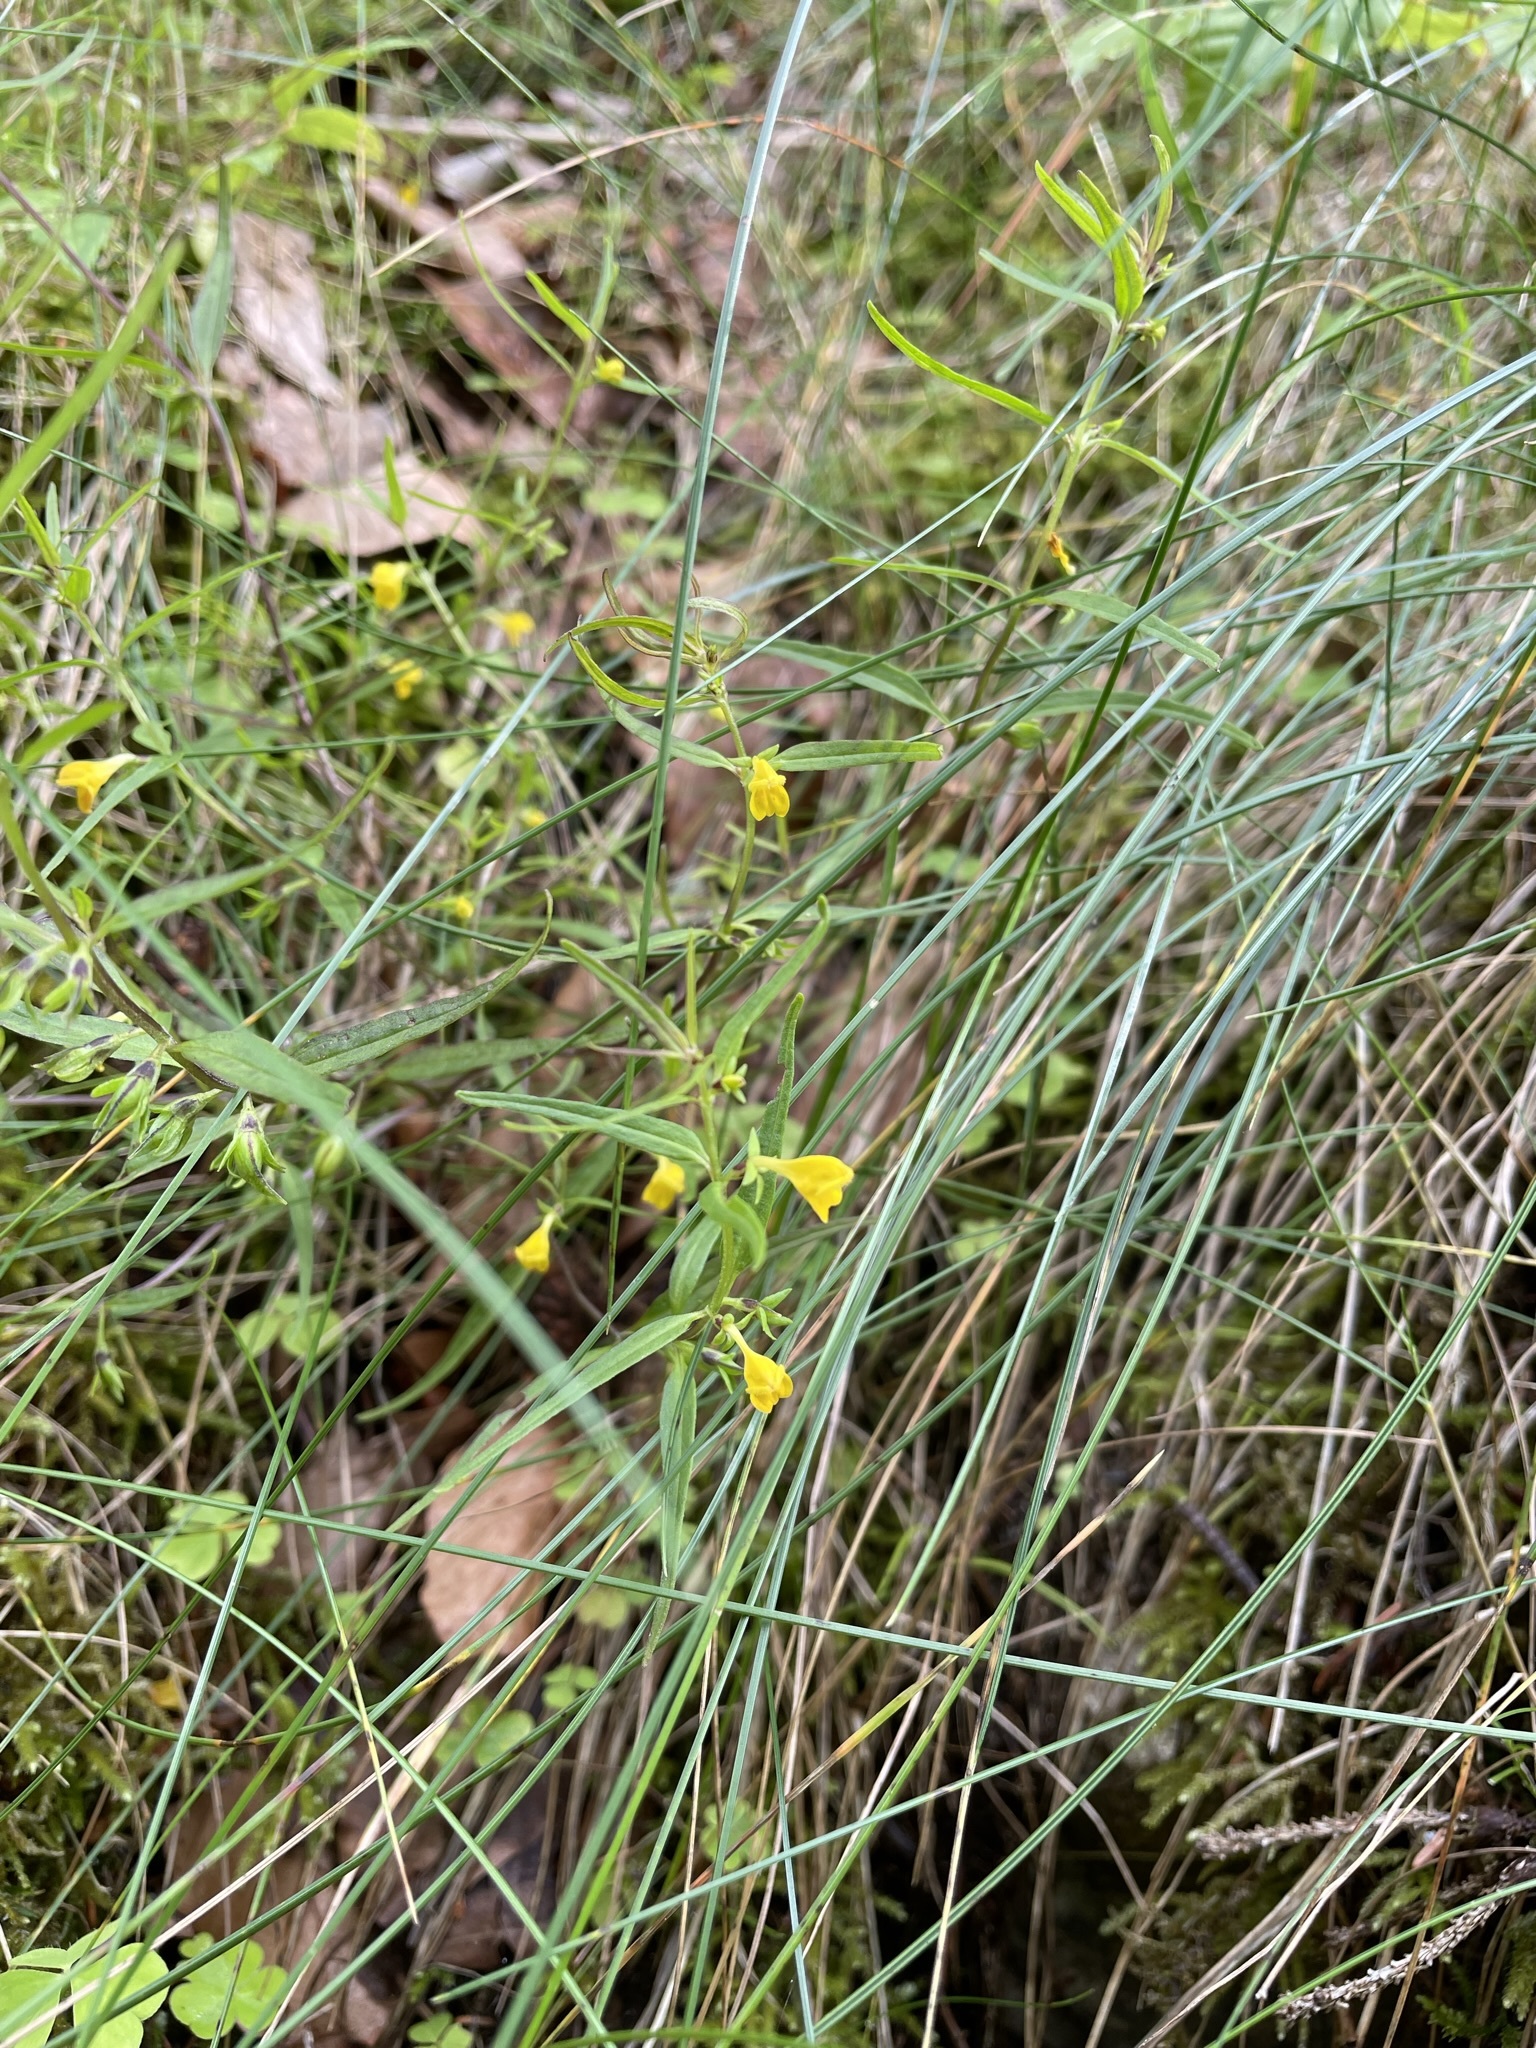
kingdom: Plantae
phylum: Tracheophyta
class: Magnoliopsida
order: Lamiales
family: Orobanchaceae
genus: Melampyrum
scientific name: Melampyrum sylvaticum
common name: Small cow-wheat
